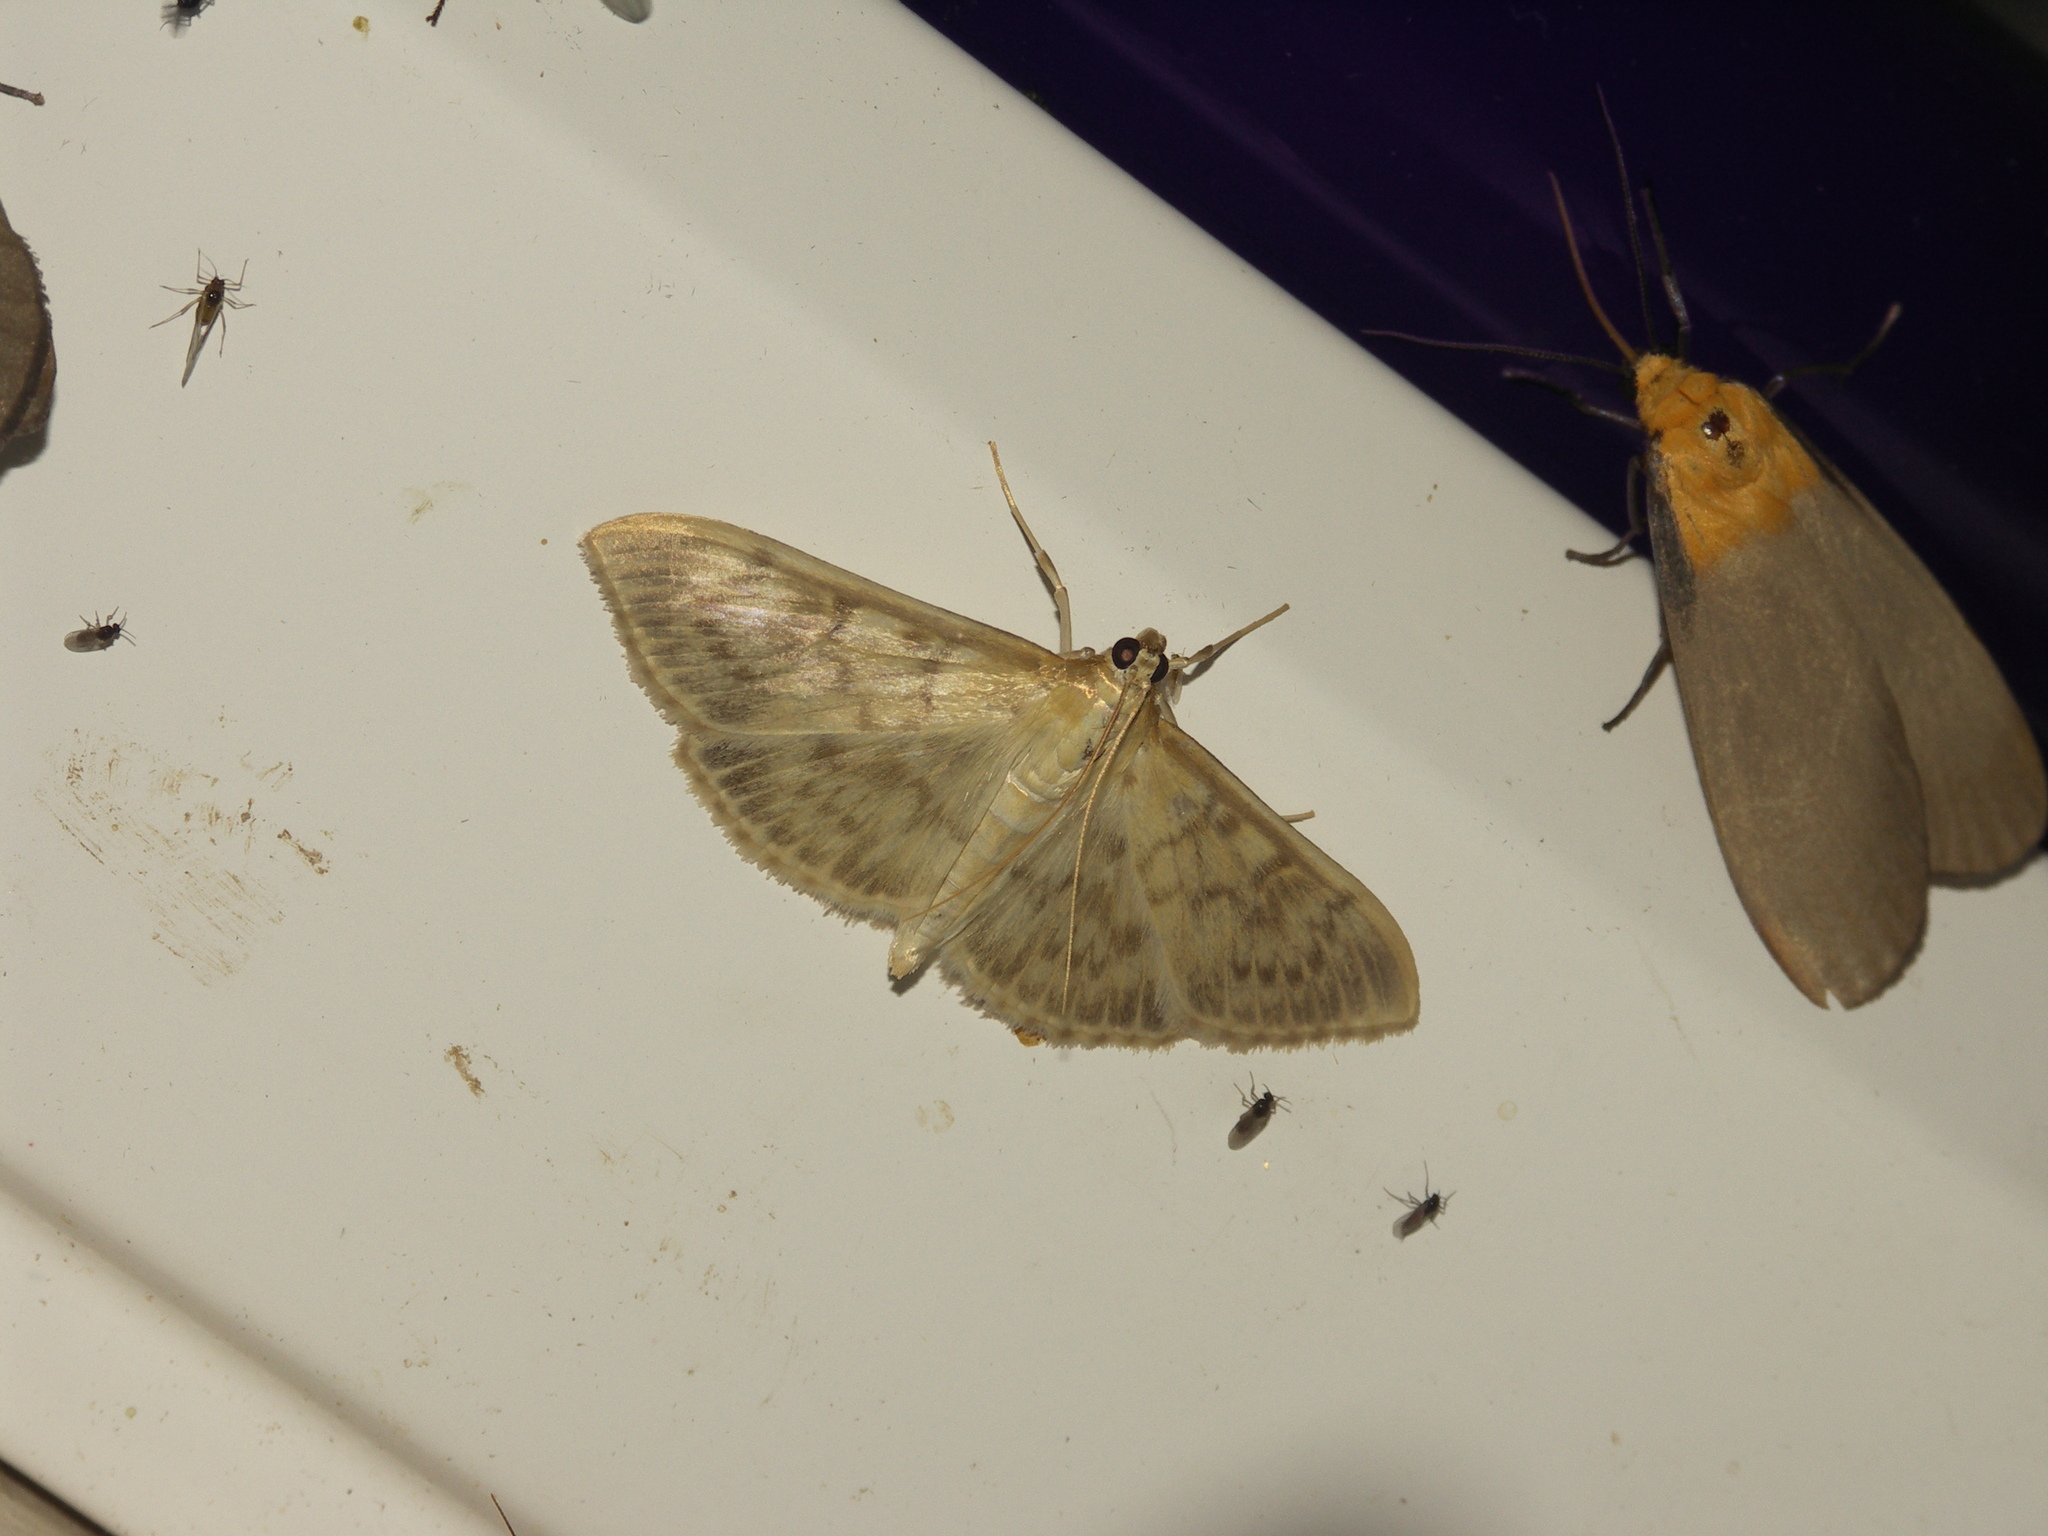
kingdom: Animalia
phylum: Arthropoda
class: Insecta
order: Lepidoptera
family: Crambidae
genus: Patania
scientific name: Patania ruralis
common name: Mother of pearl
